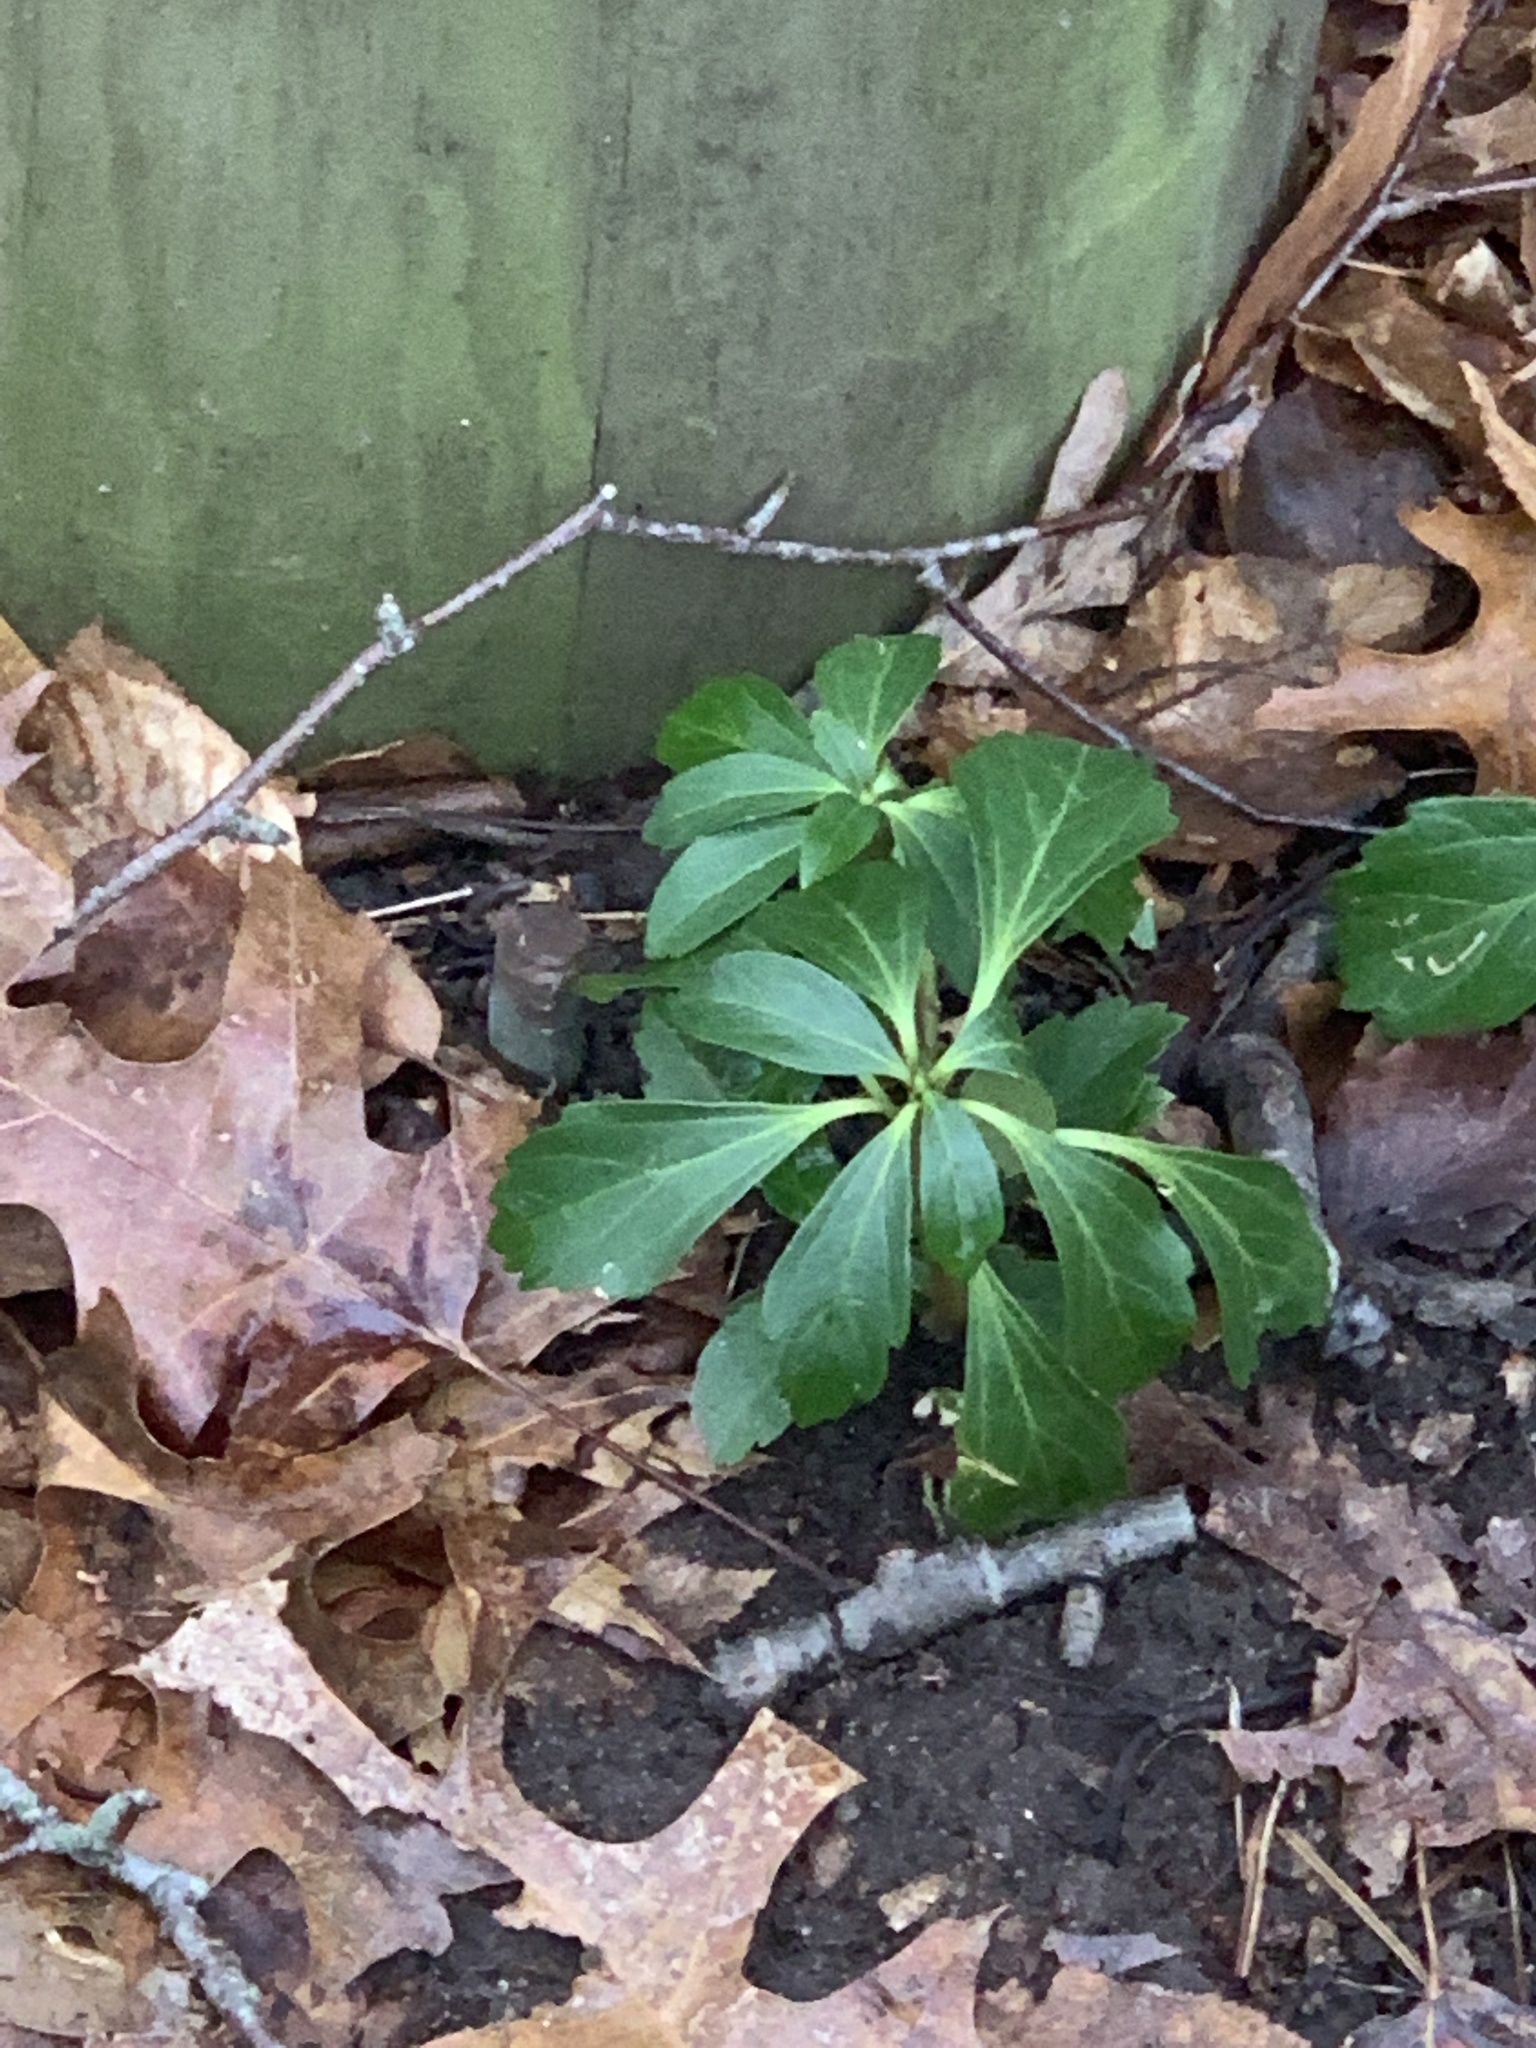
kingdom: Plantae
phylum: Tracheophyta
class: Magnoliopsida
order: Buxales
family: Buxaceae
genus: Pachysandra
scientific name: Pachysandra terminalis
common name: Japanese pachysandra
